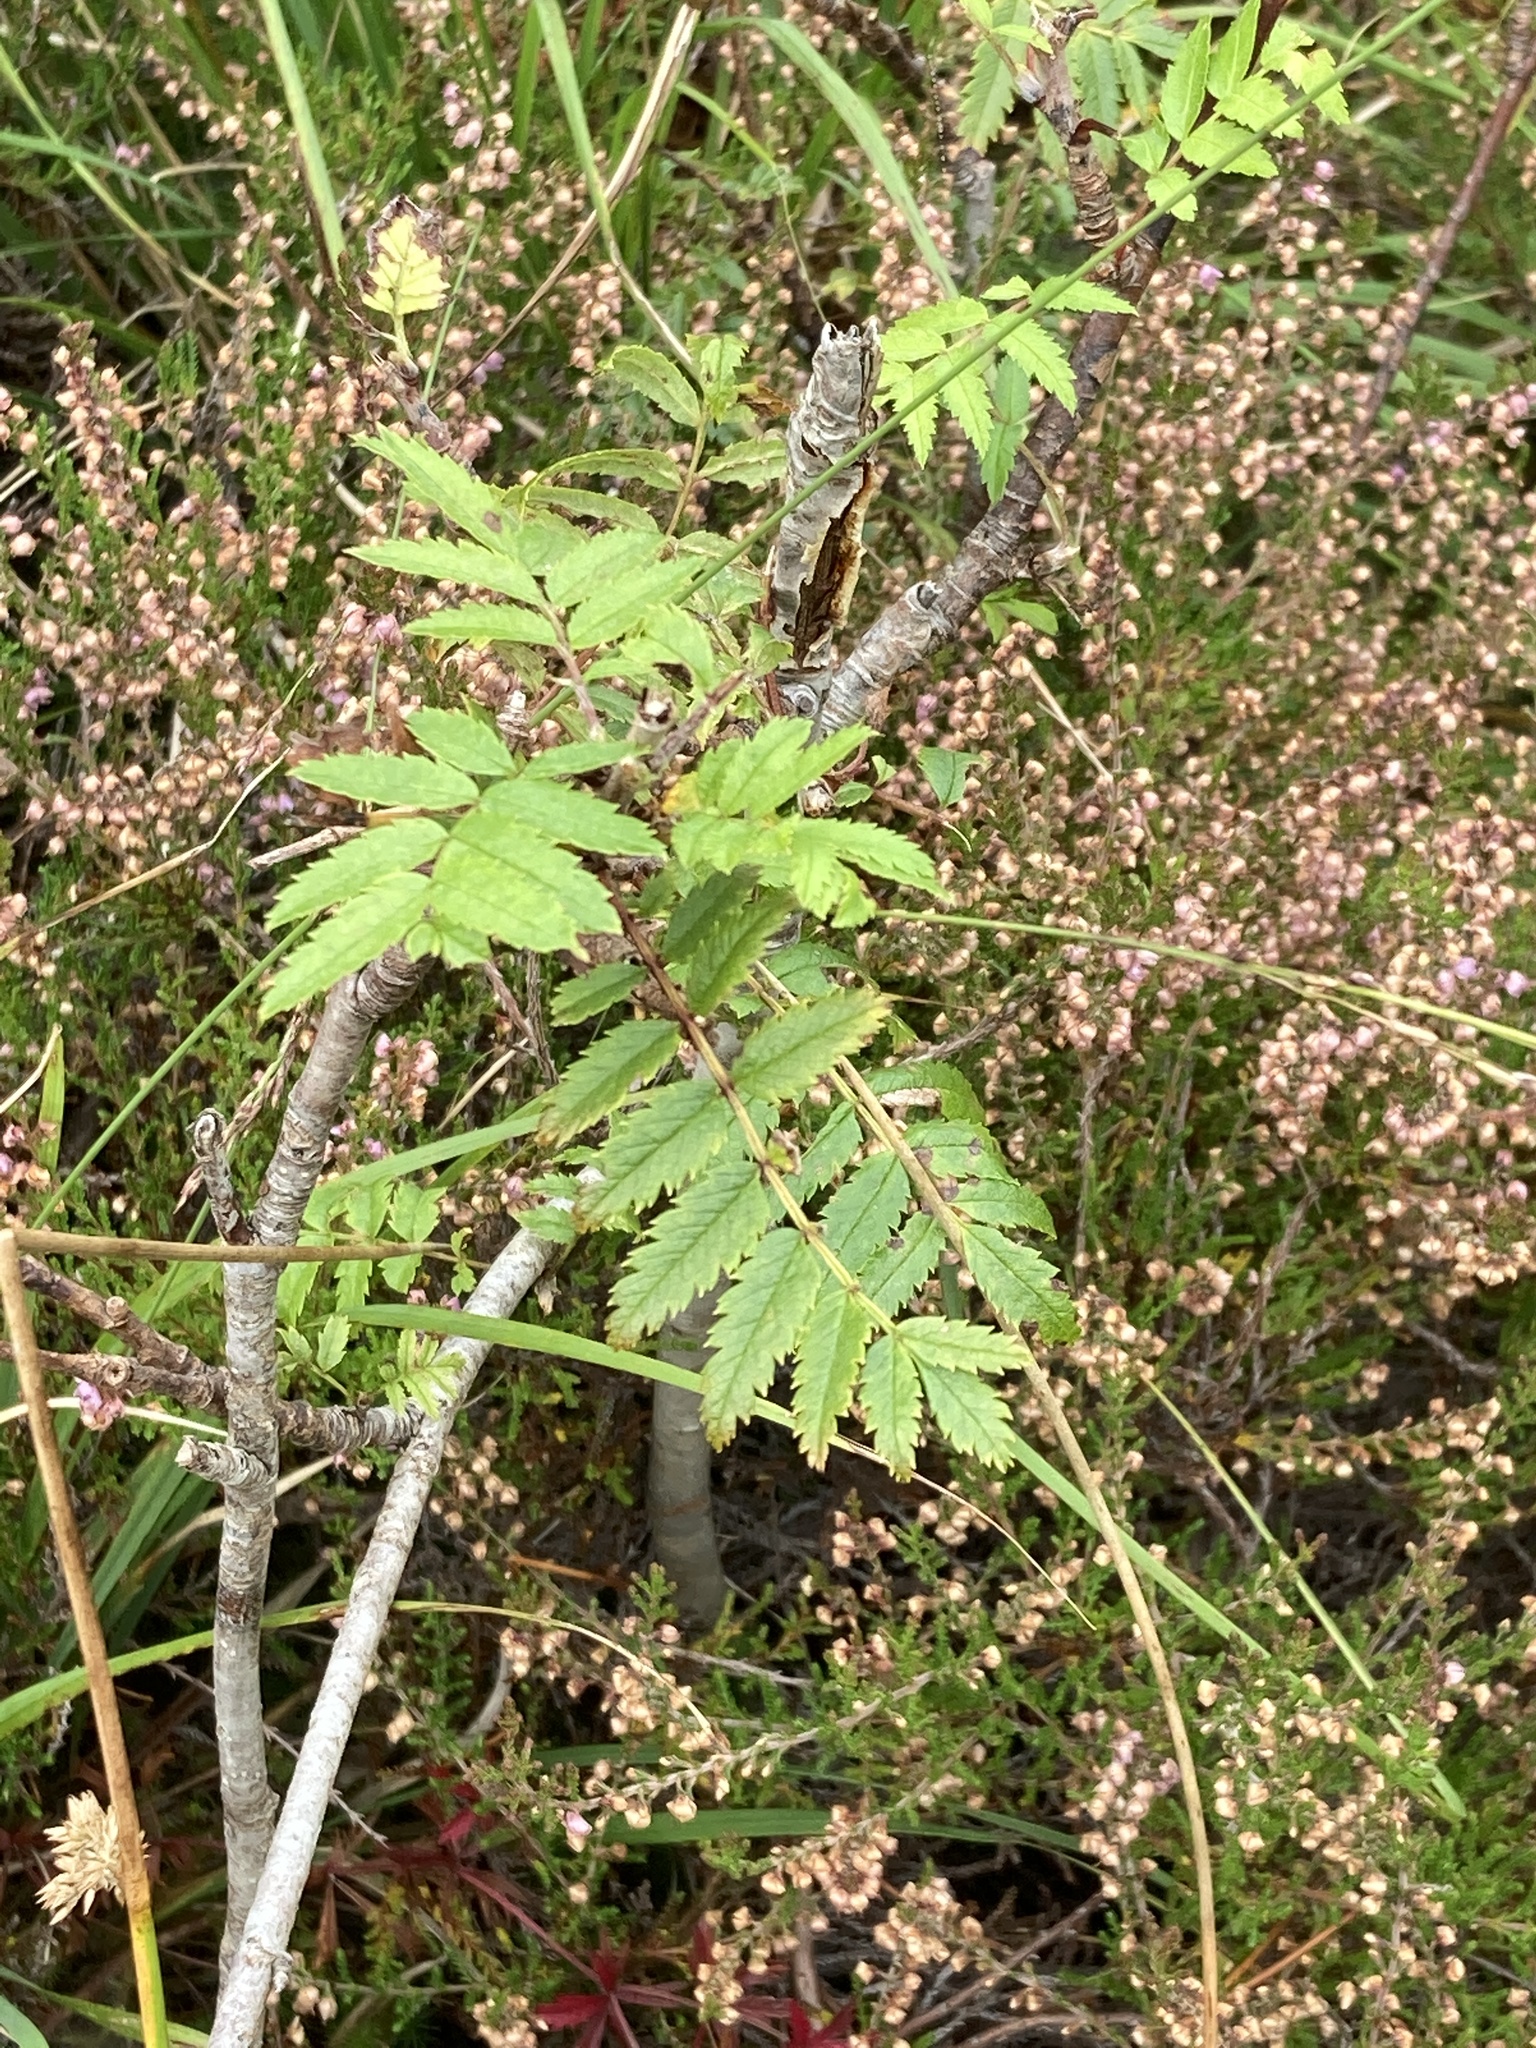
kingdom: Plantae
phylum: Tracheophyta
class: Magnoliopsida
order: Rosales
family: Rosaceae
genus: Sorbus
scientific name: Sorbus aucuparia
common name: Rowan
